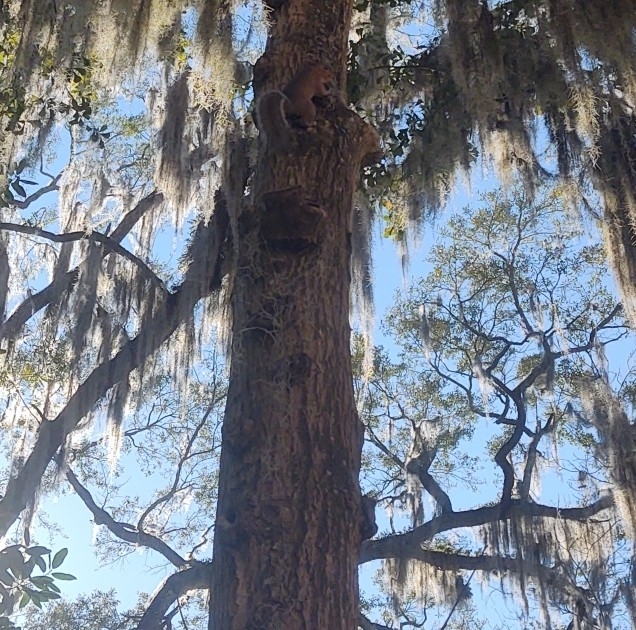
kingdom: Animalia
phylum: Chordata
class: Mammalia
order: Rodentia
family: Sciuridae
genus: Sciurus
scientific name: Sciurus carolinensis
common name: Eastern gray squirrel
